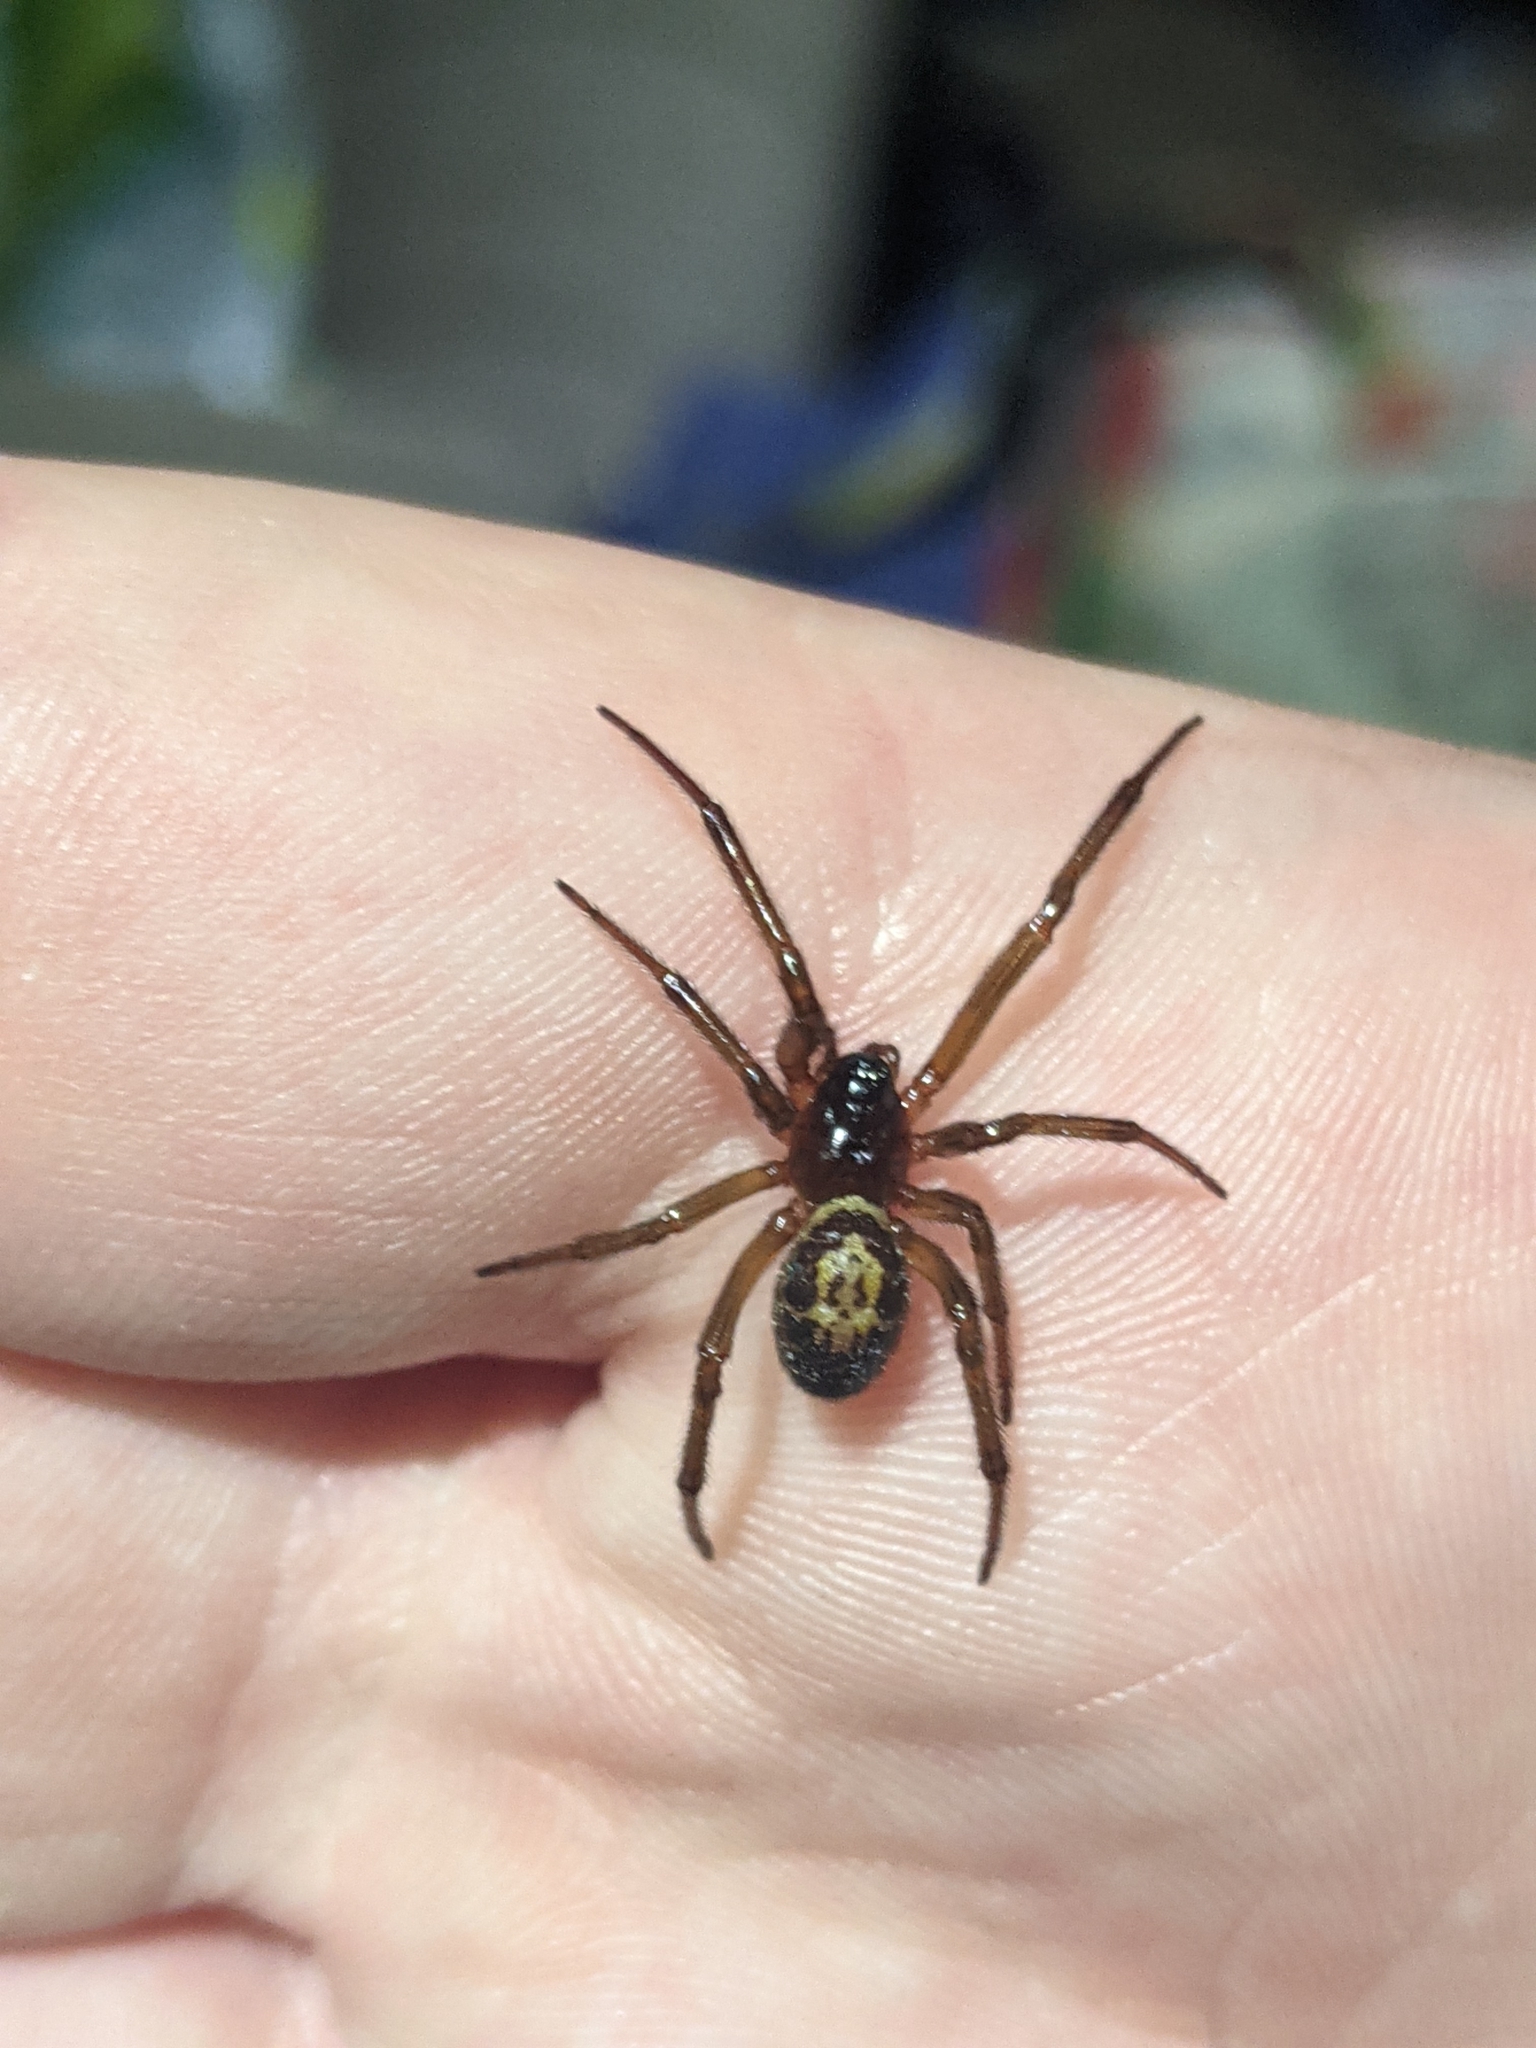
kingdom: Animalia
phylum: Arthropoda
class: Arachnida
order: Araneae
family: Theridiidae
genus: Steatoda
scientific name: Steatoda nobilis
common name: Cobweb weaver
